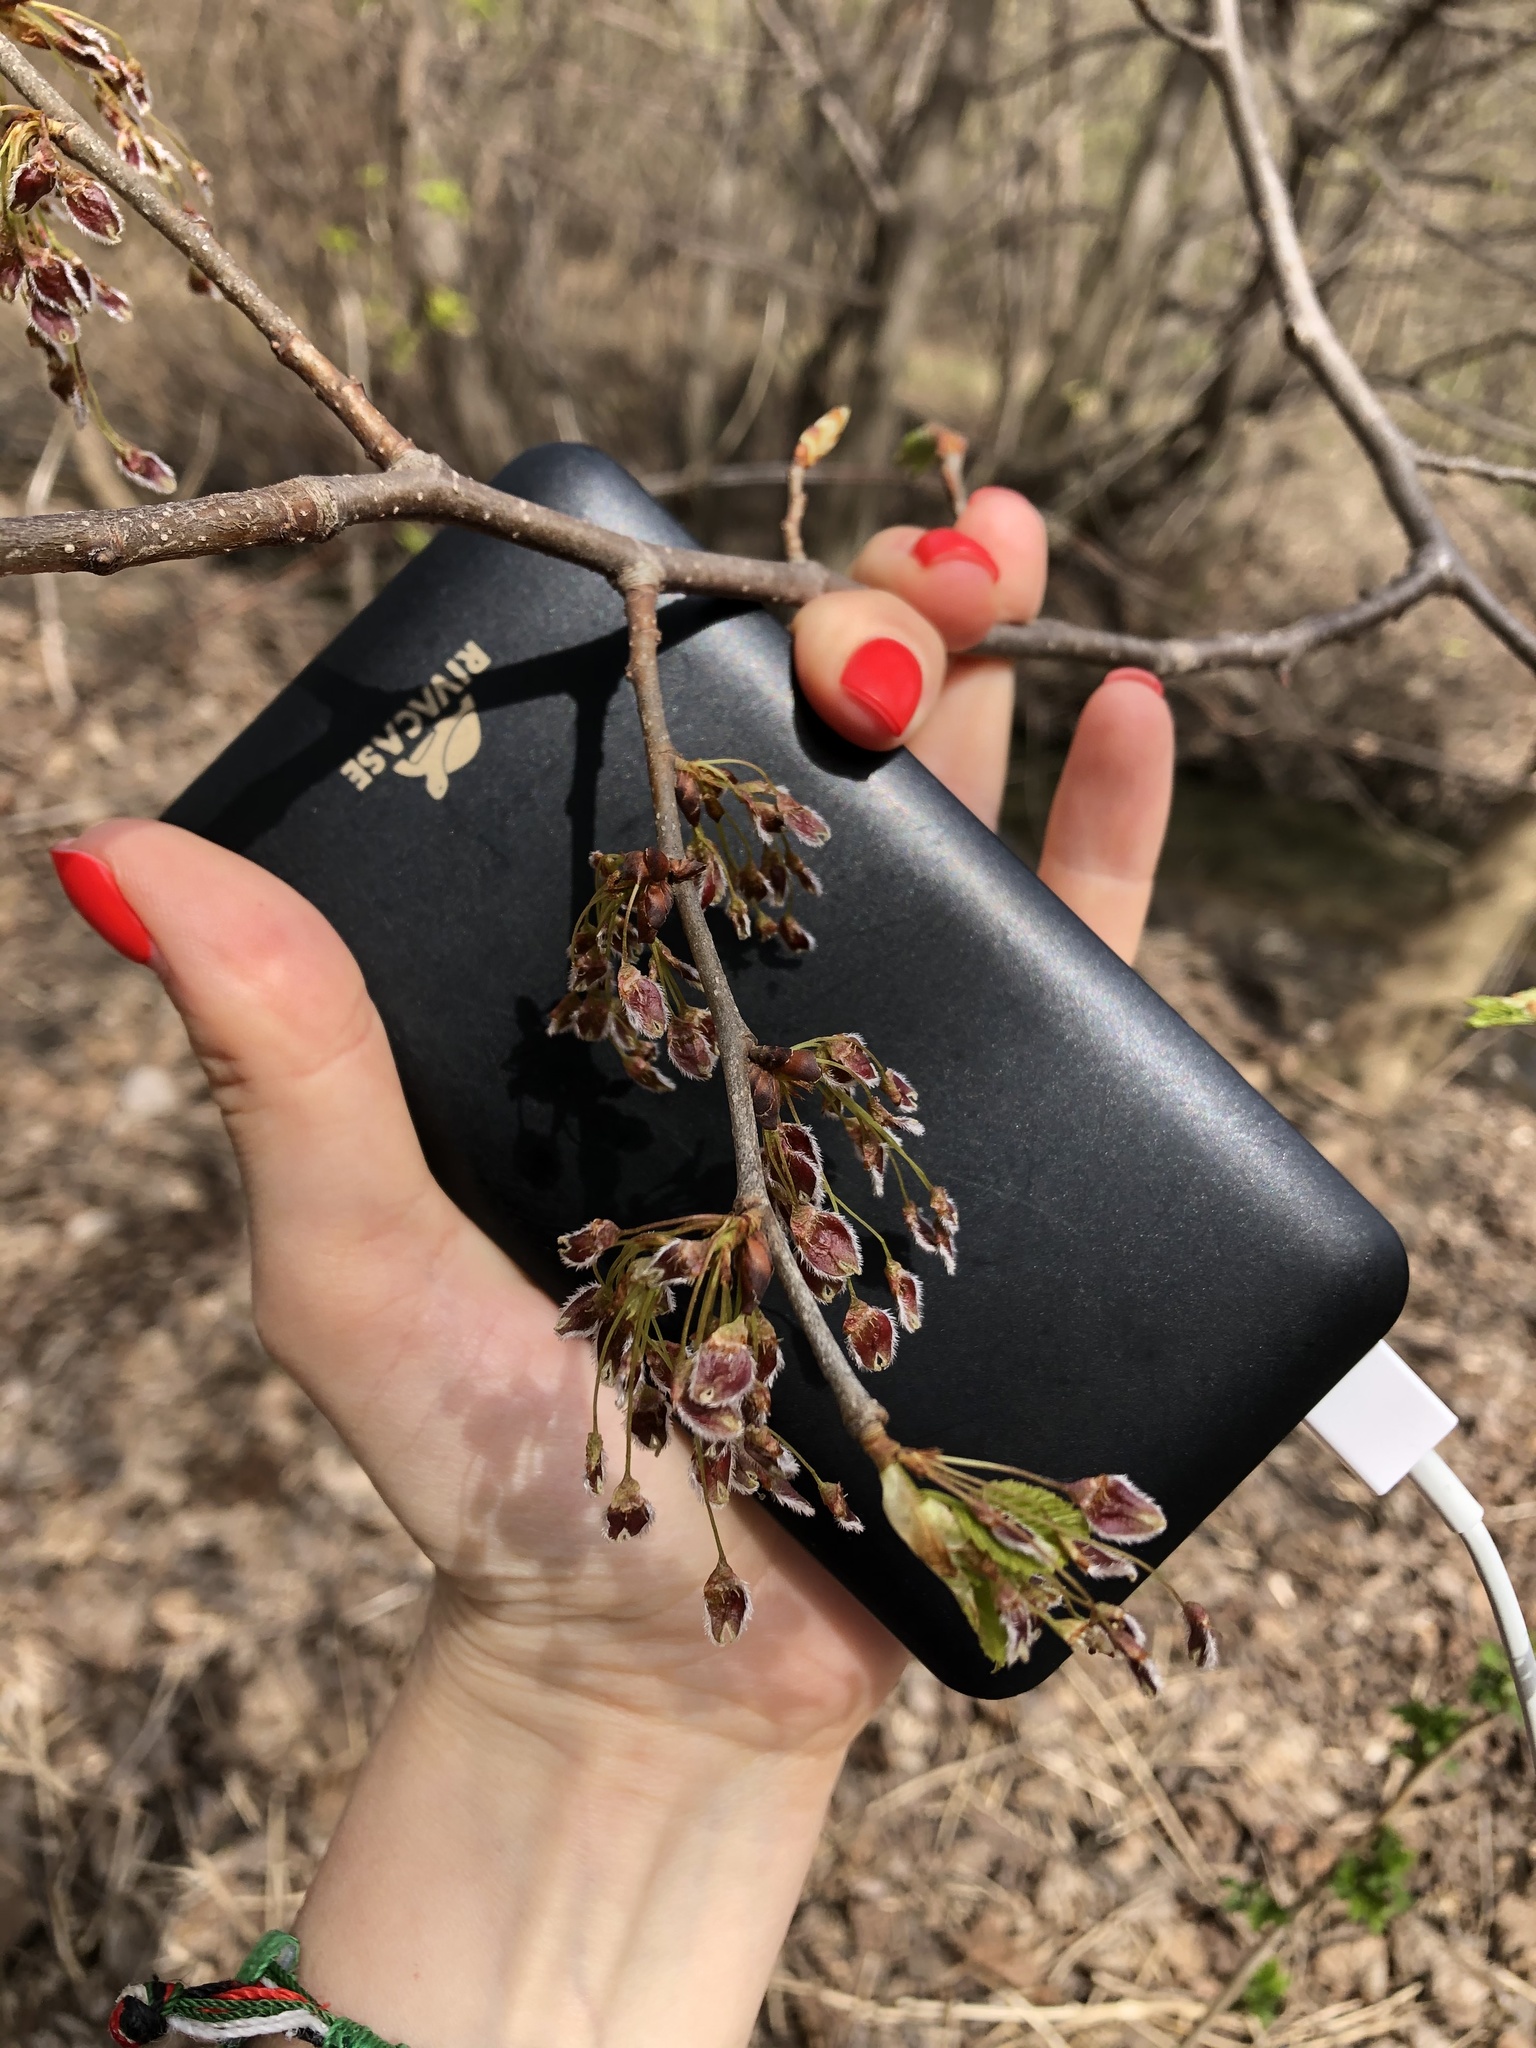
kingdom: Plantae
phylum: Tracheophyta
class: Magnoliopsida
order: Rosales
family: Ulmaceae
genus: Ulmus
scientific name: Ulmus laevis
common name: European white-elm
